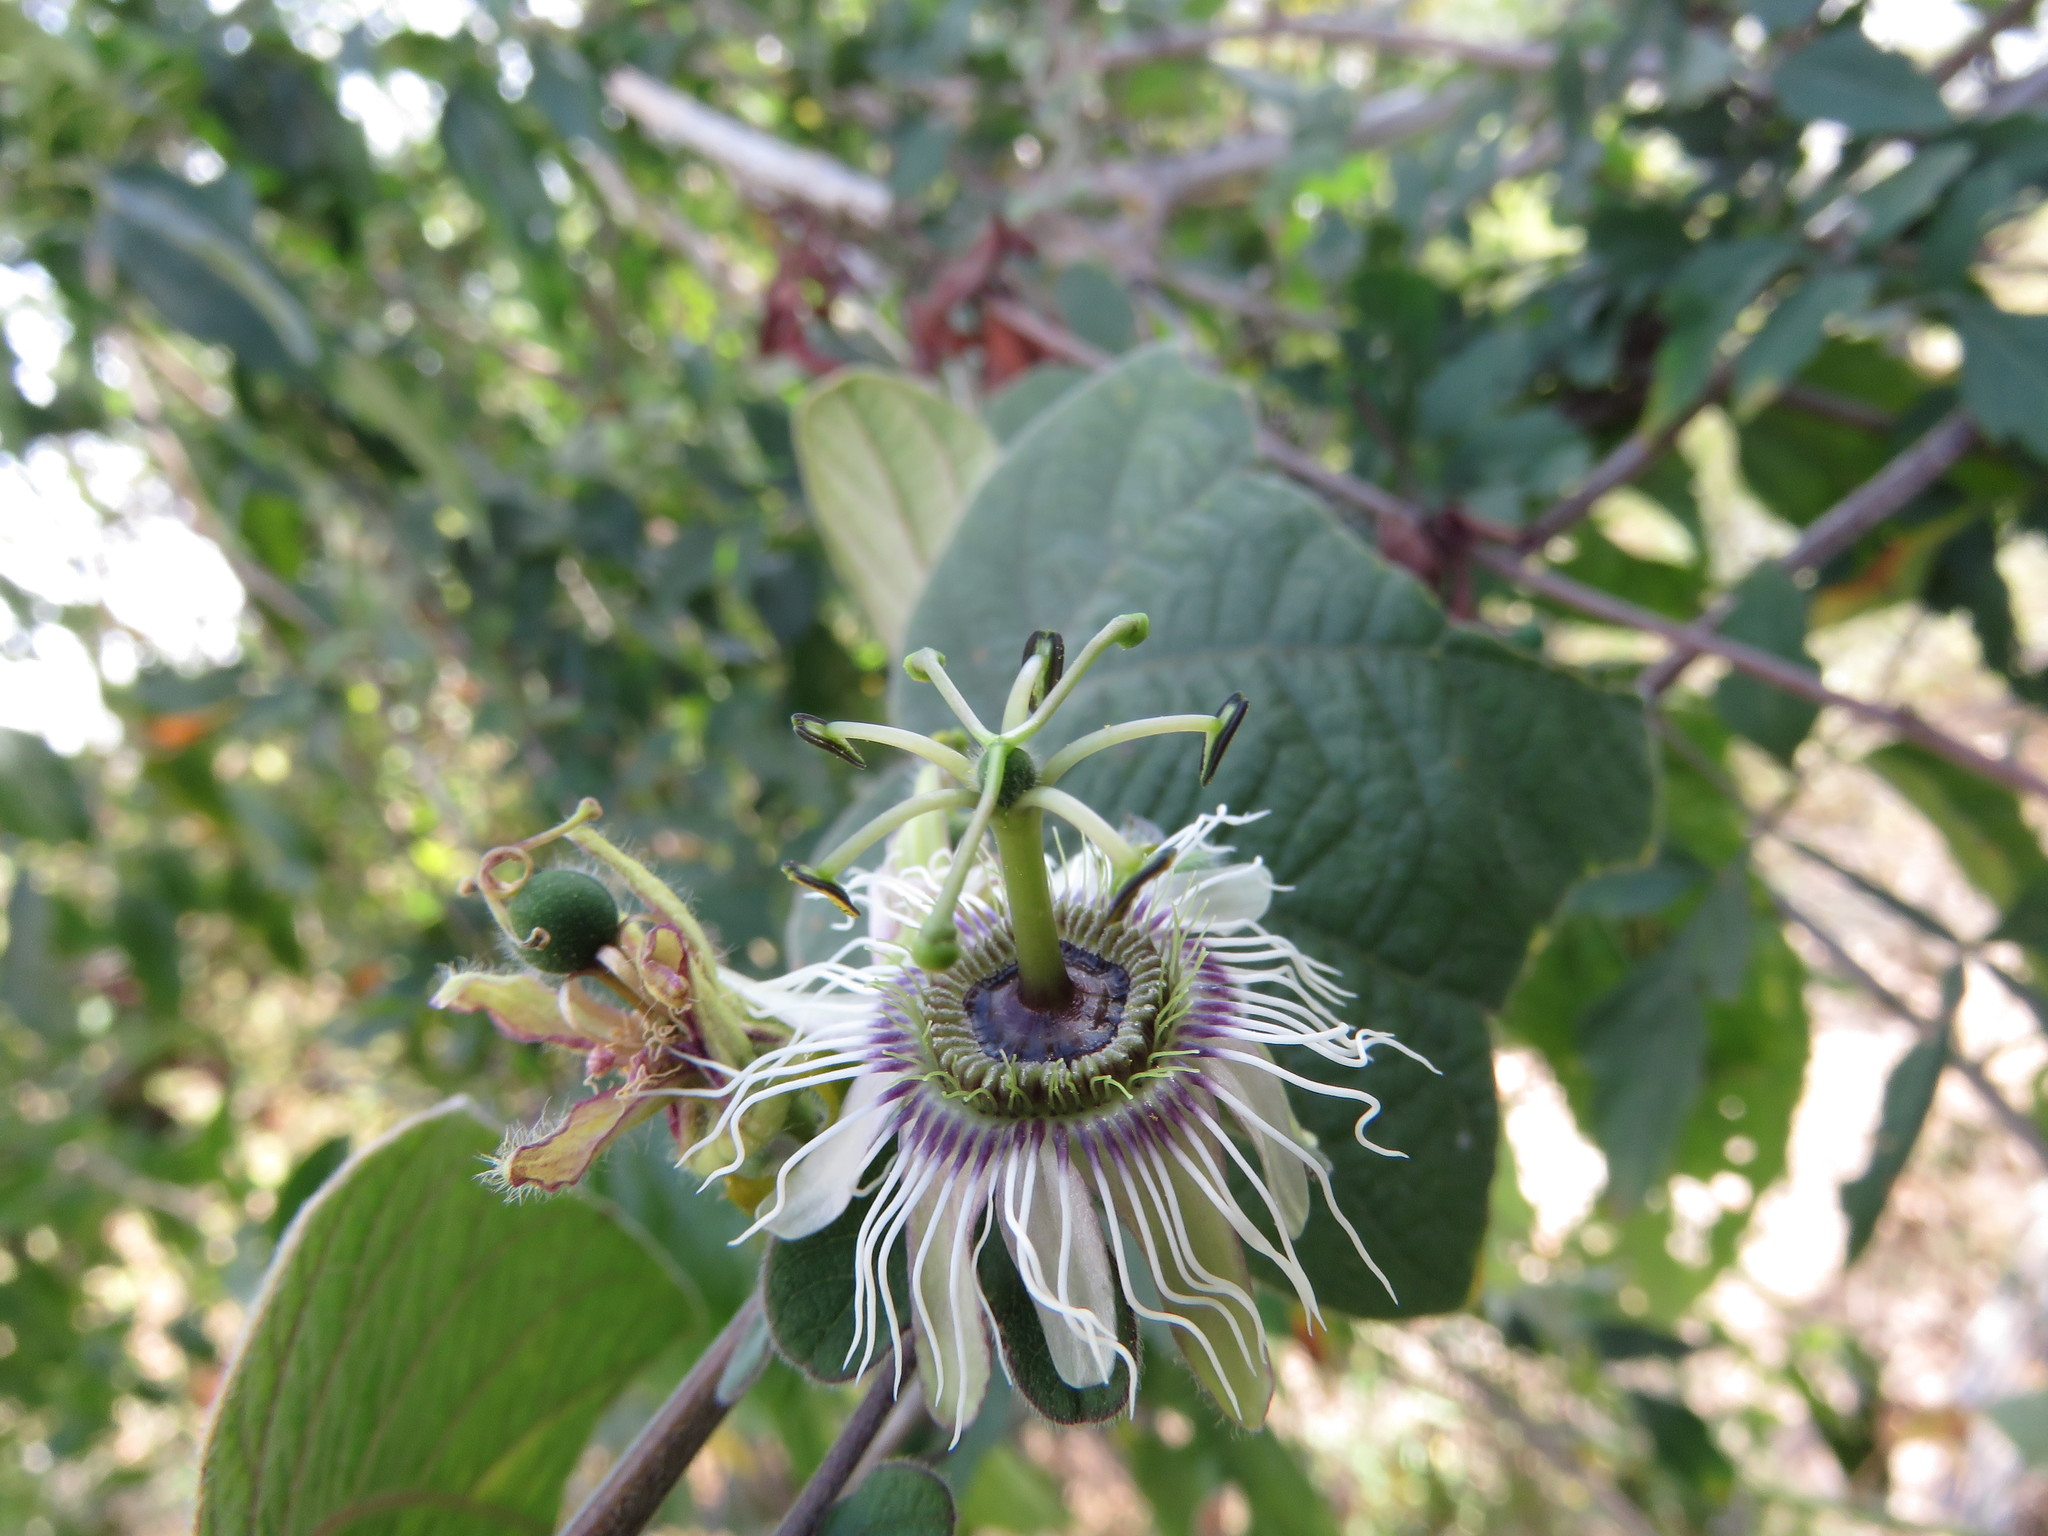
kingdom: Plantae
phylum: Tracheophyta
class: Magnoliopsida
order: Malpighiales
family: Passifloraceae
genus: Passiflora
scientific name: Passiflora porphyretica
